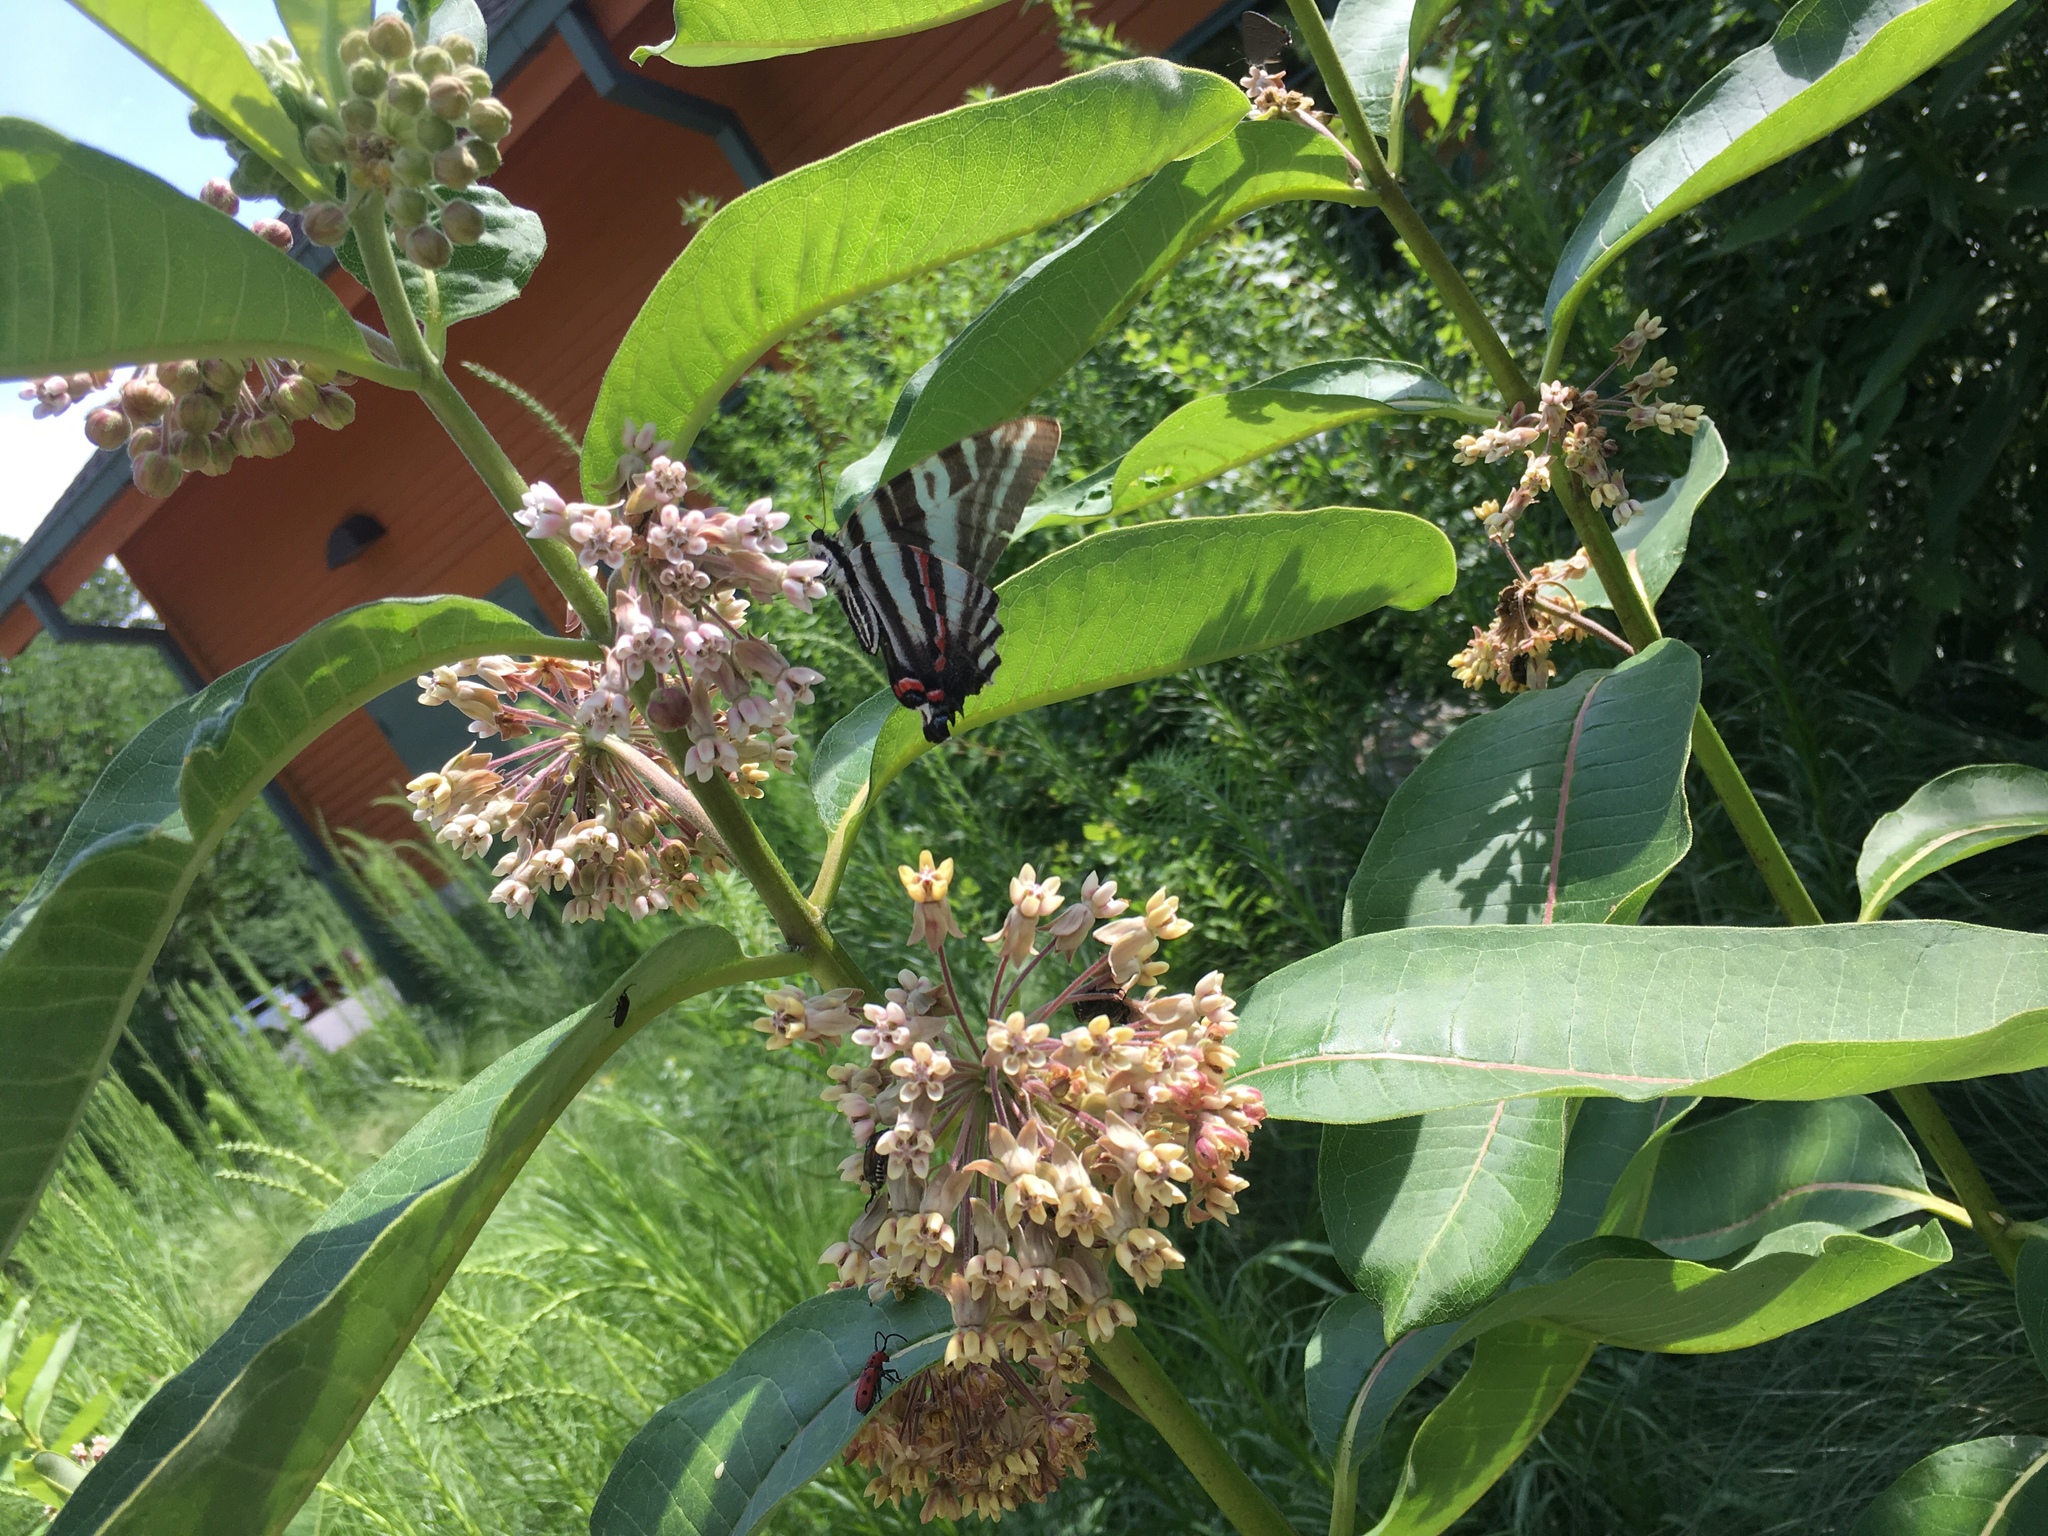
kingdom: Animalia
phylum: Arthropoda
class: Insecta
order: Lepidoptera
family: Papilionidae
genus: Protographium
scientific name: Protographium marcellus
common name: Zebra swallowtail
